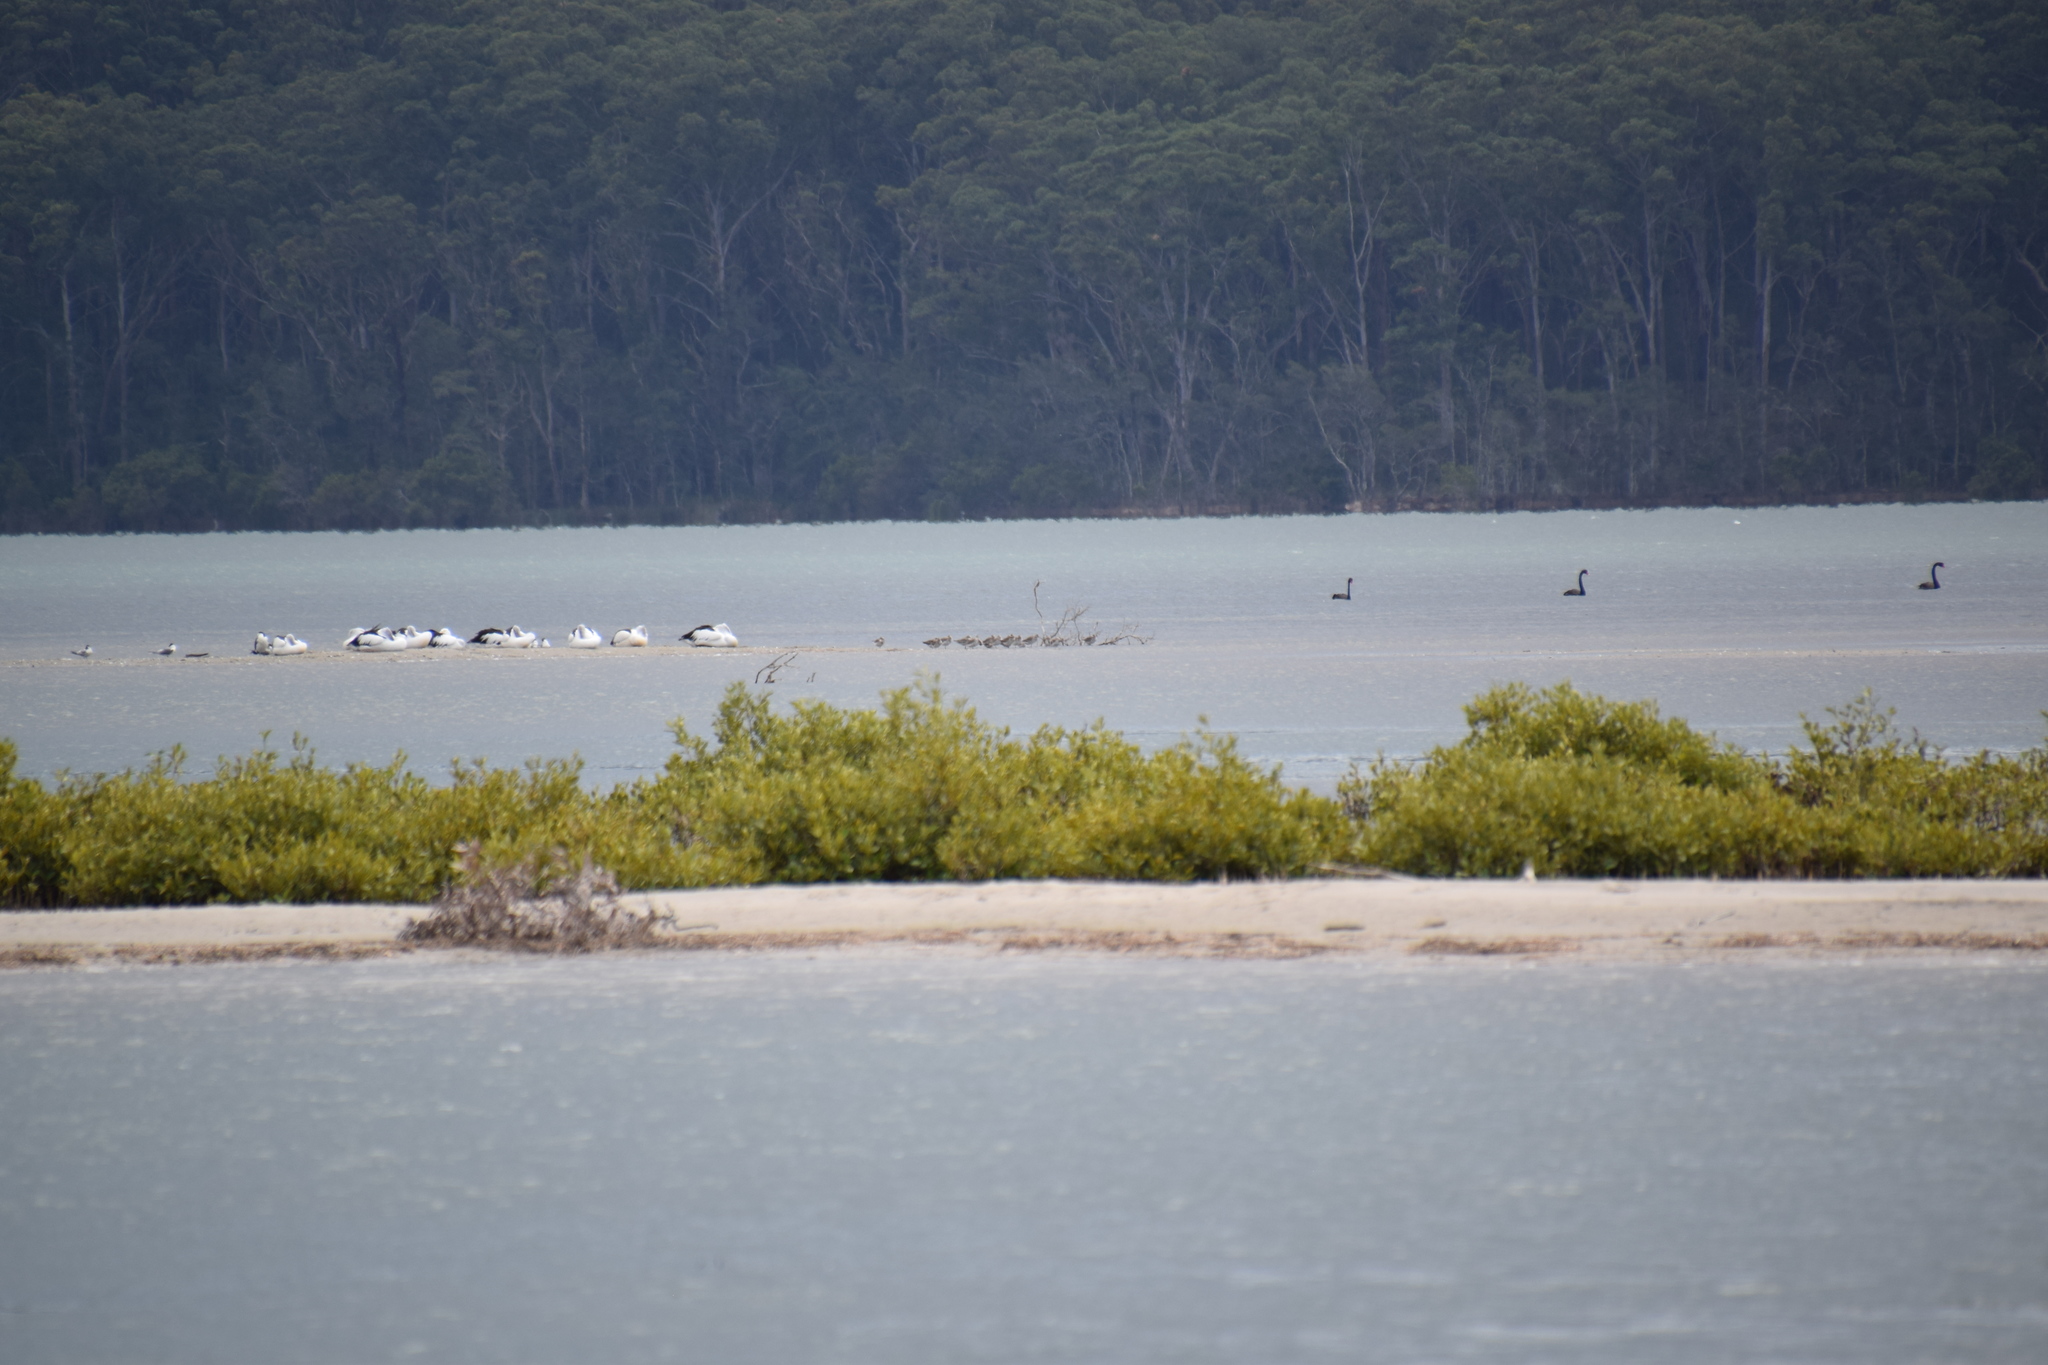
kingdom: Animalia
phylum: Chordata
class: Aves
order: Anseriformes
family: Anatidae
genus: Cygnus
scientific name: Cygnus atratus
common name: Black swan
